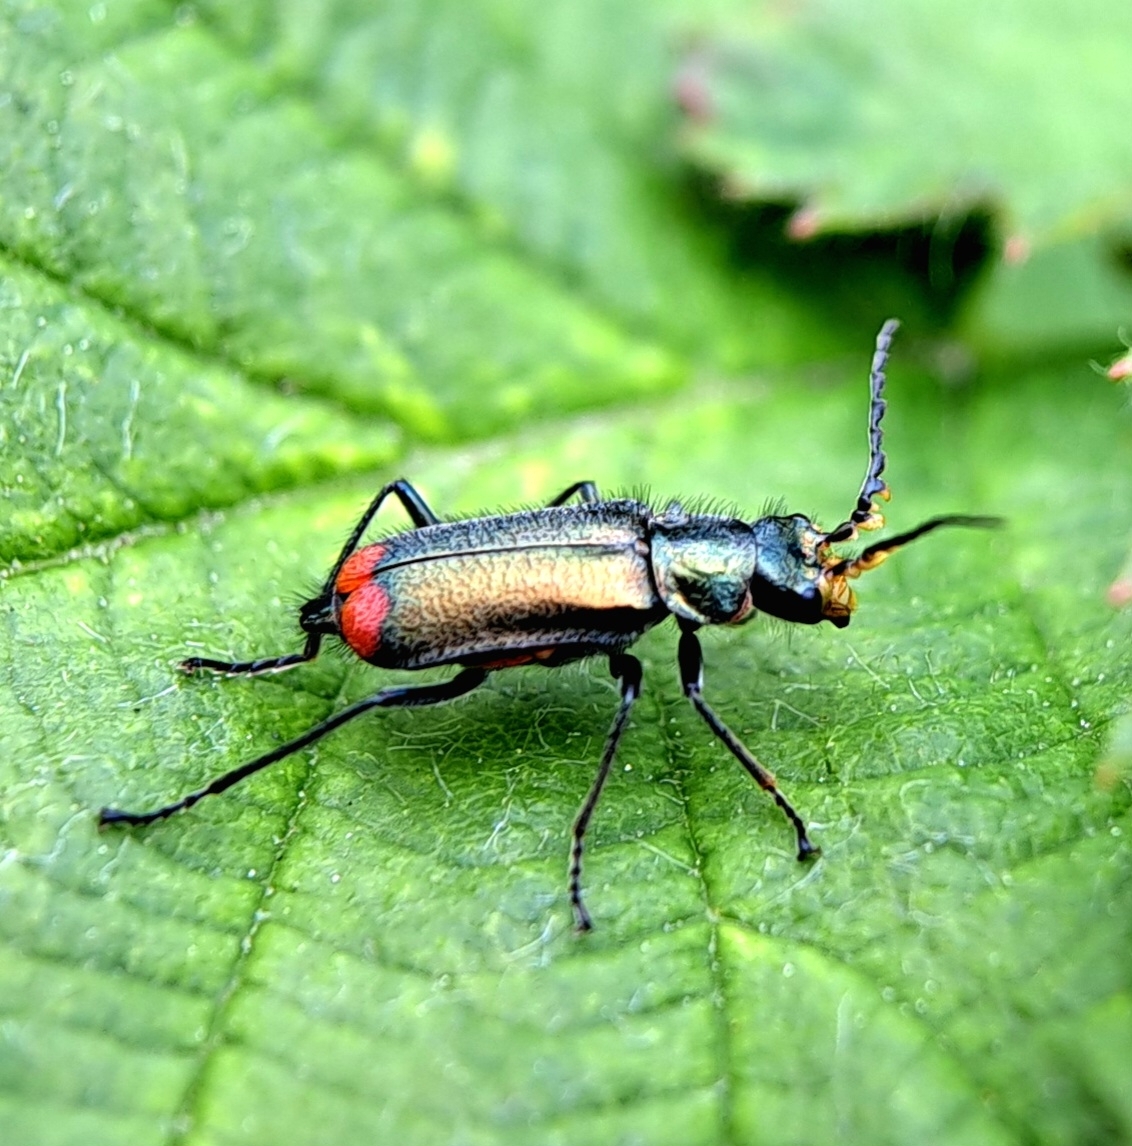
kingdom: Animalia
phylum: Arthropoda
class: Insecta
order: Coleoptera
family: Melyridae
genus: Malachius
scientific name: Malachius bipustulatus
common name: Malachite beetle
